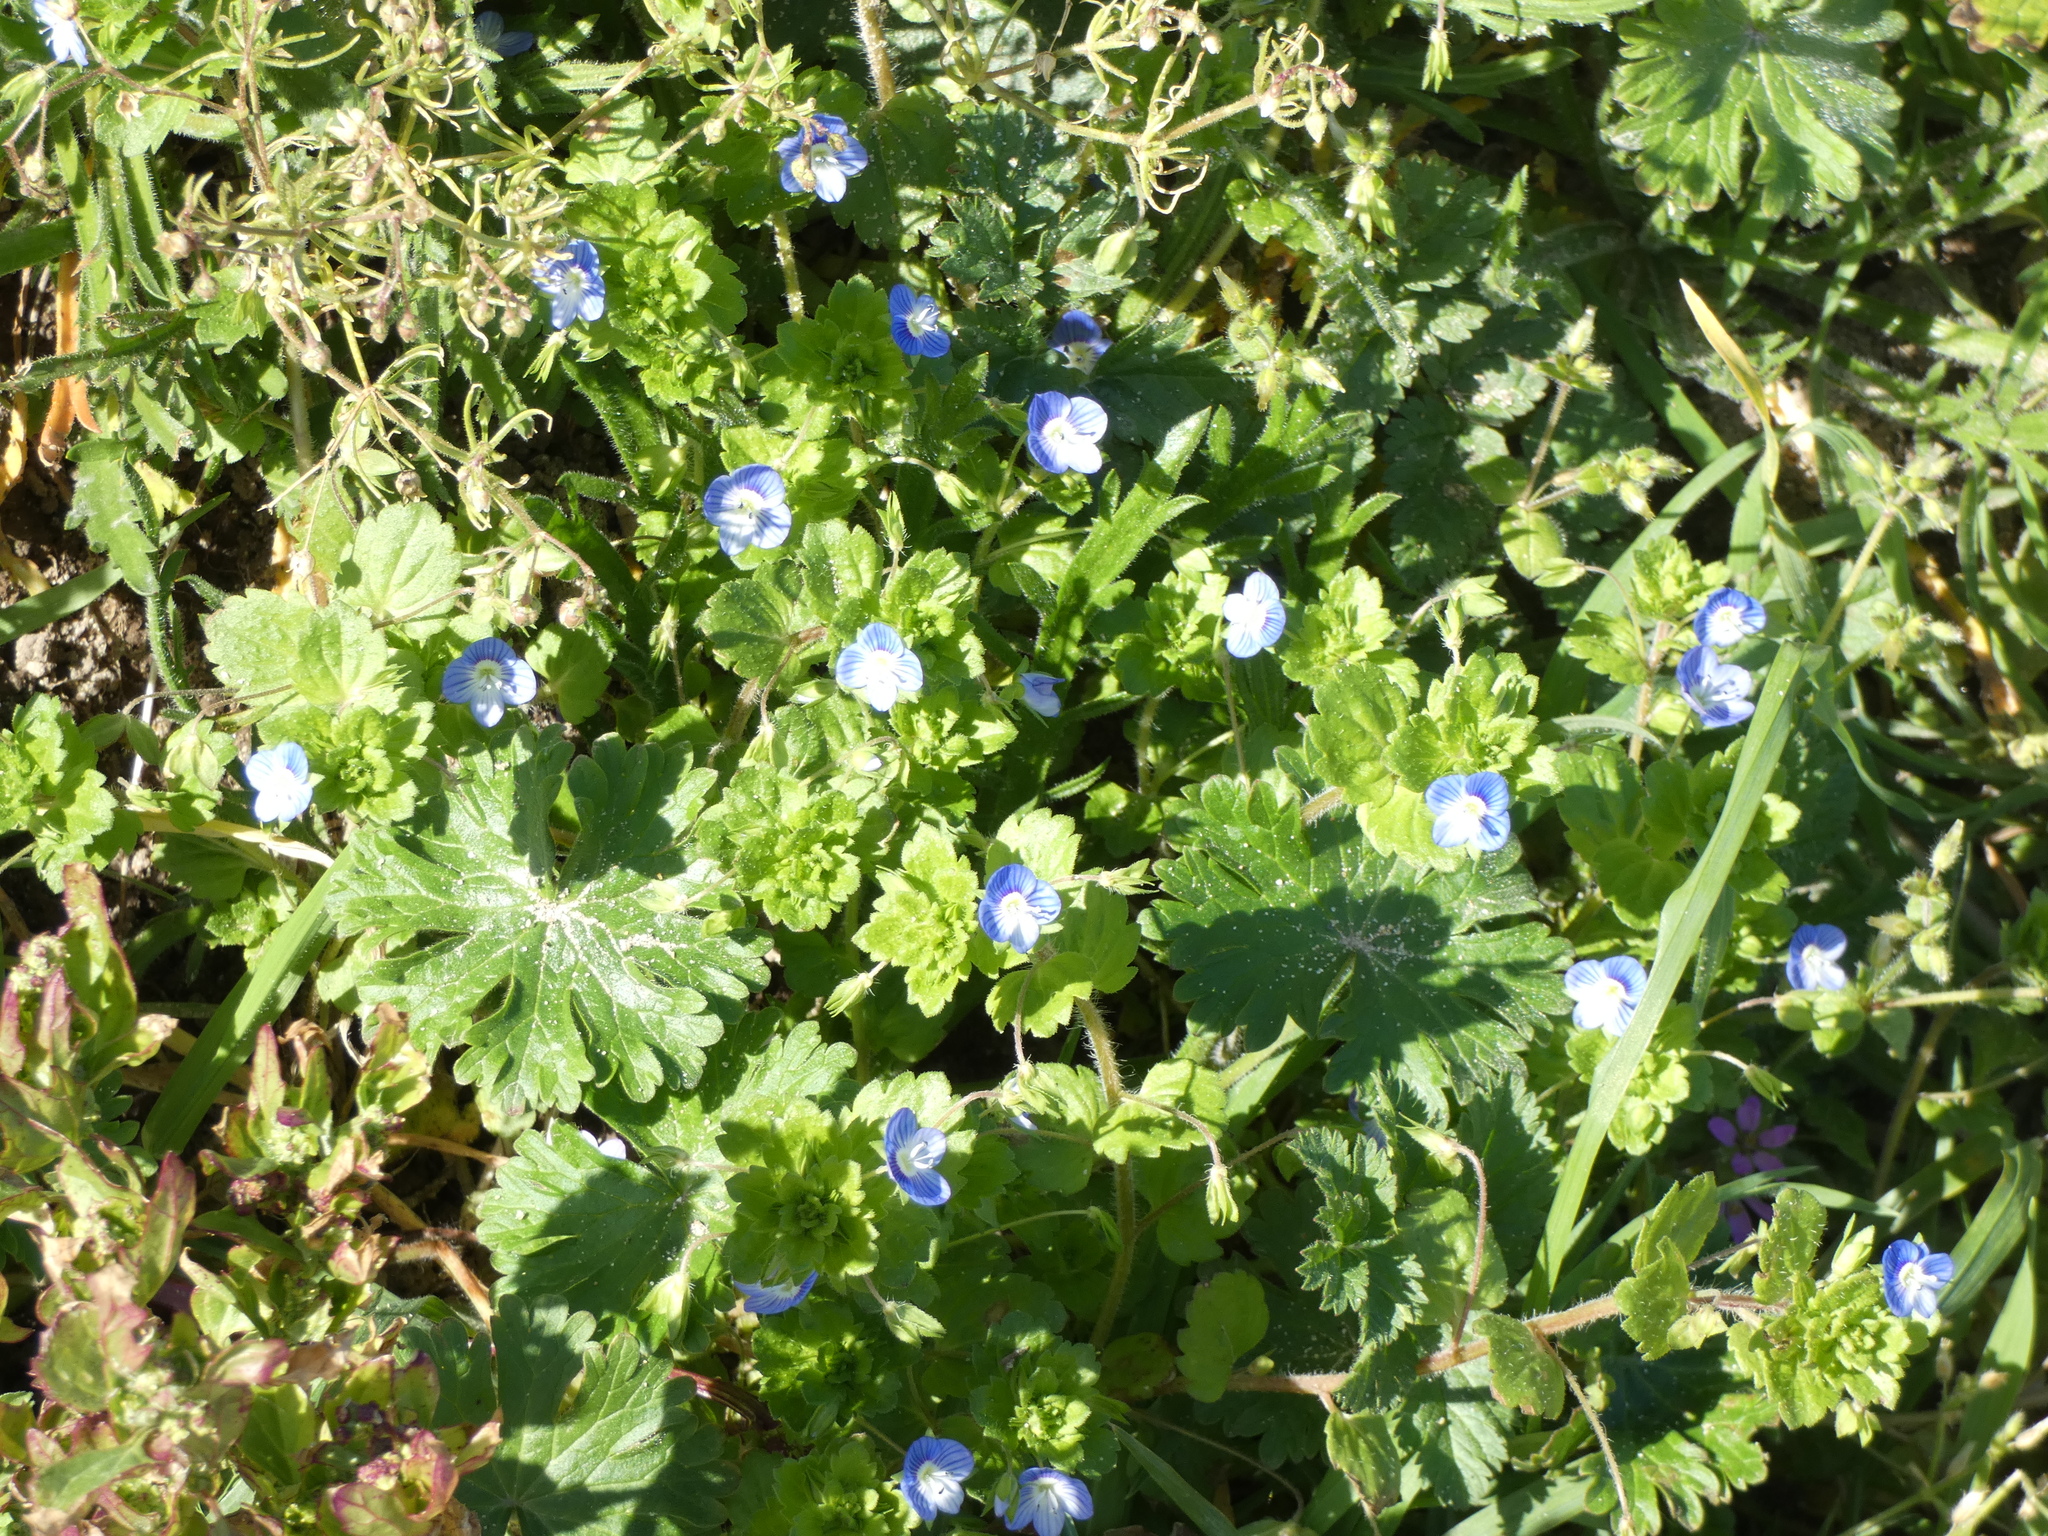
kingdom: Plantae
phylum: Tracheophyta
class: Magnoliopsida
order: Lamiales
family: Plantaginaceae
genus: Veronica
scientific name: Veronica persica
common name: Common field-speedwell
